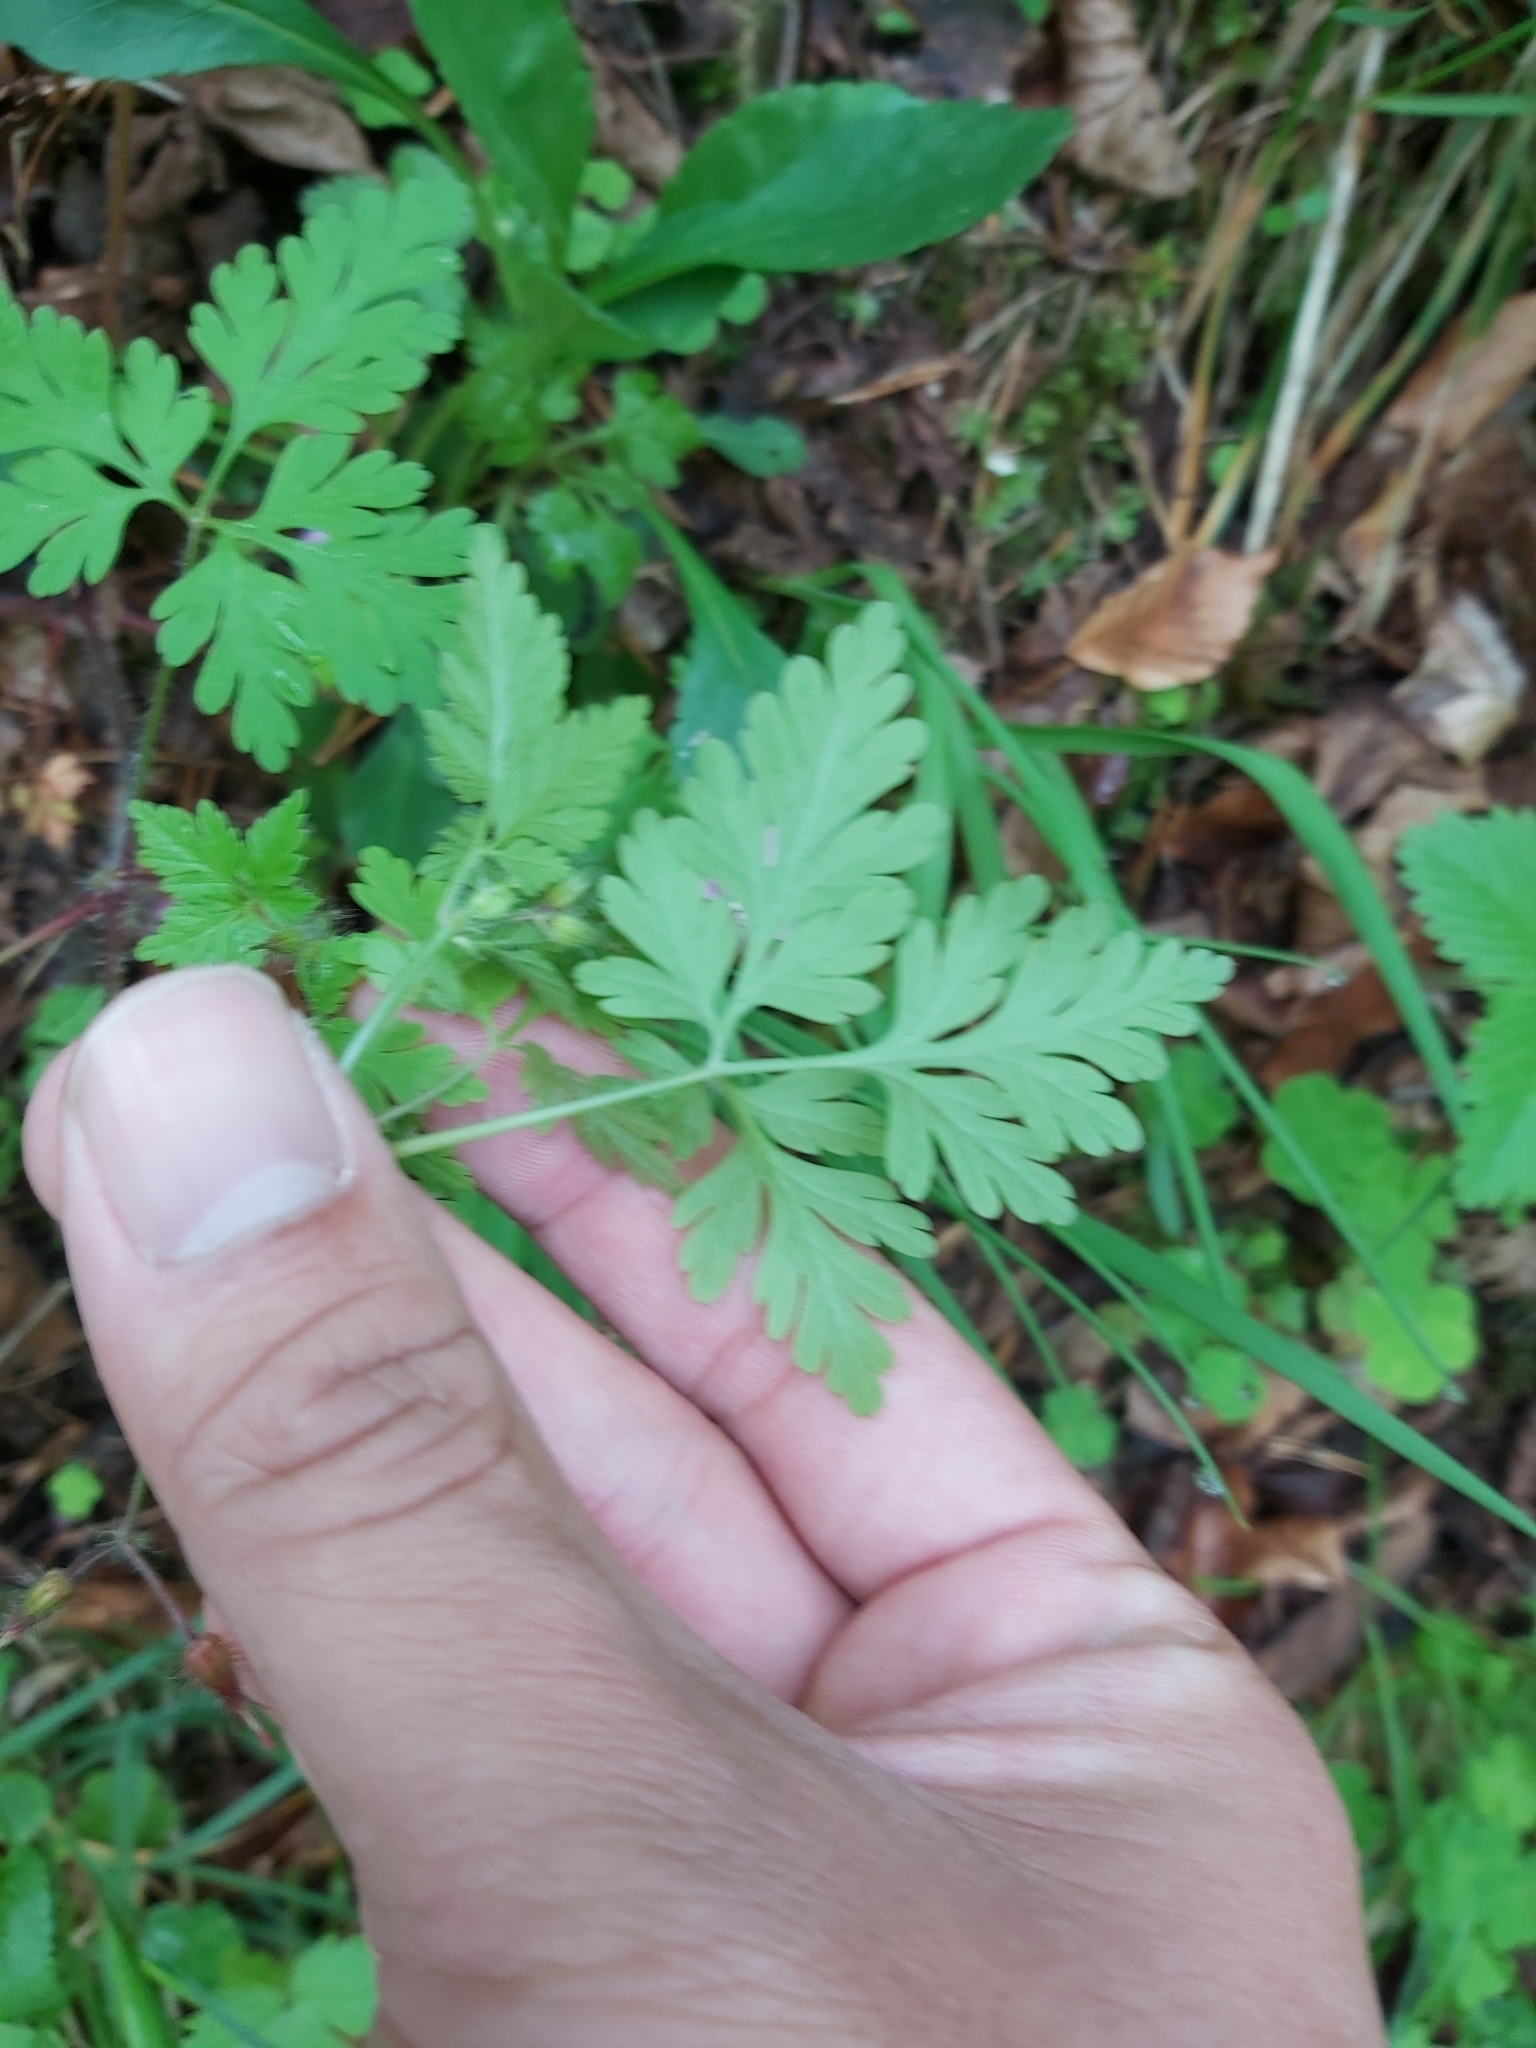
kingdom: Plantae
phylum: Tracheophyta
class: Magnoliopsida
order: Geraniales
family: Geraniaceae
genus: Geranium
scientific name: Geranium robertianum
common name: Herb-robert
